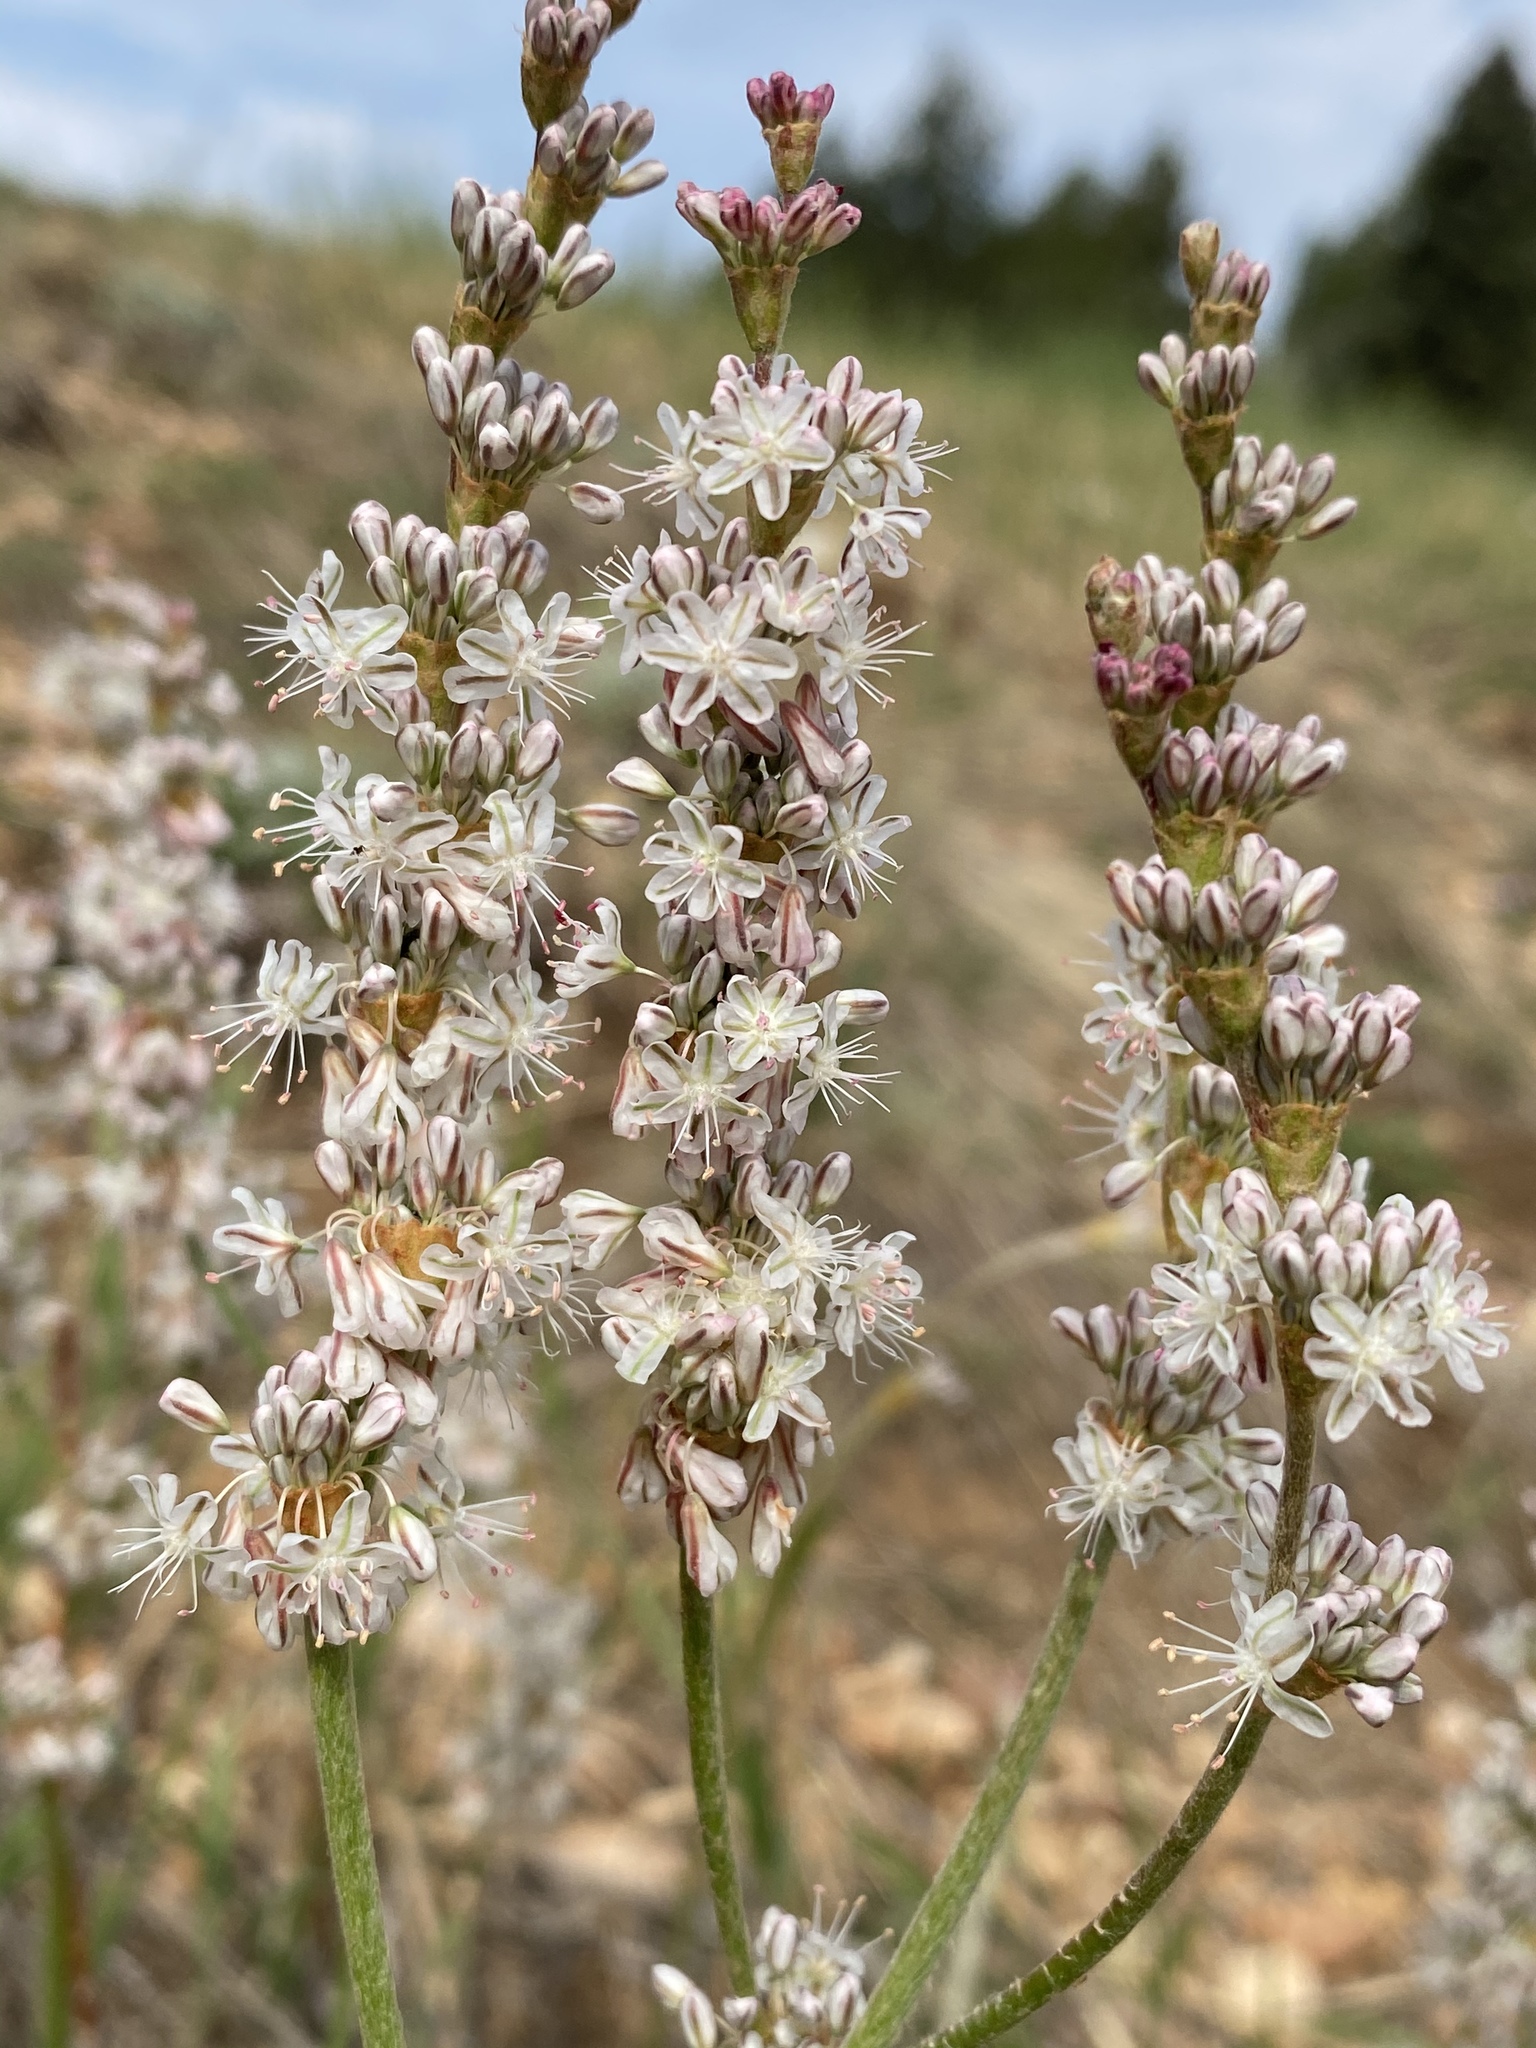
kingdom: Plantae
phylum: Tracheophyta
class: Magnoliopsida
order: Caryophyllales
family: Polygonaceae
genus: Eriogonum
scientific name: Eriogonum racemosum
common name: Redroot wild buckwheat
